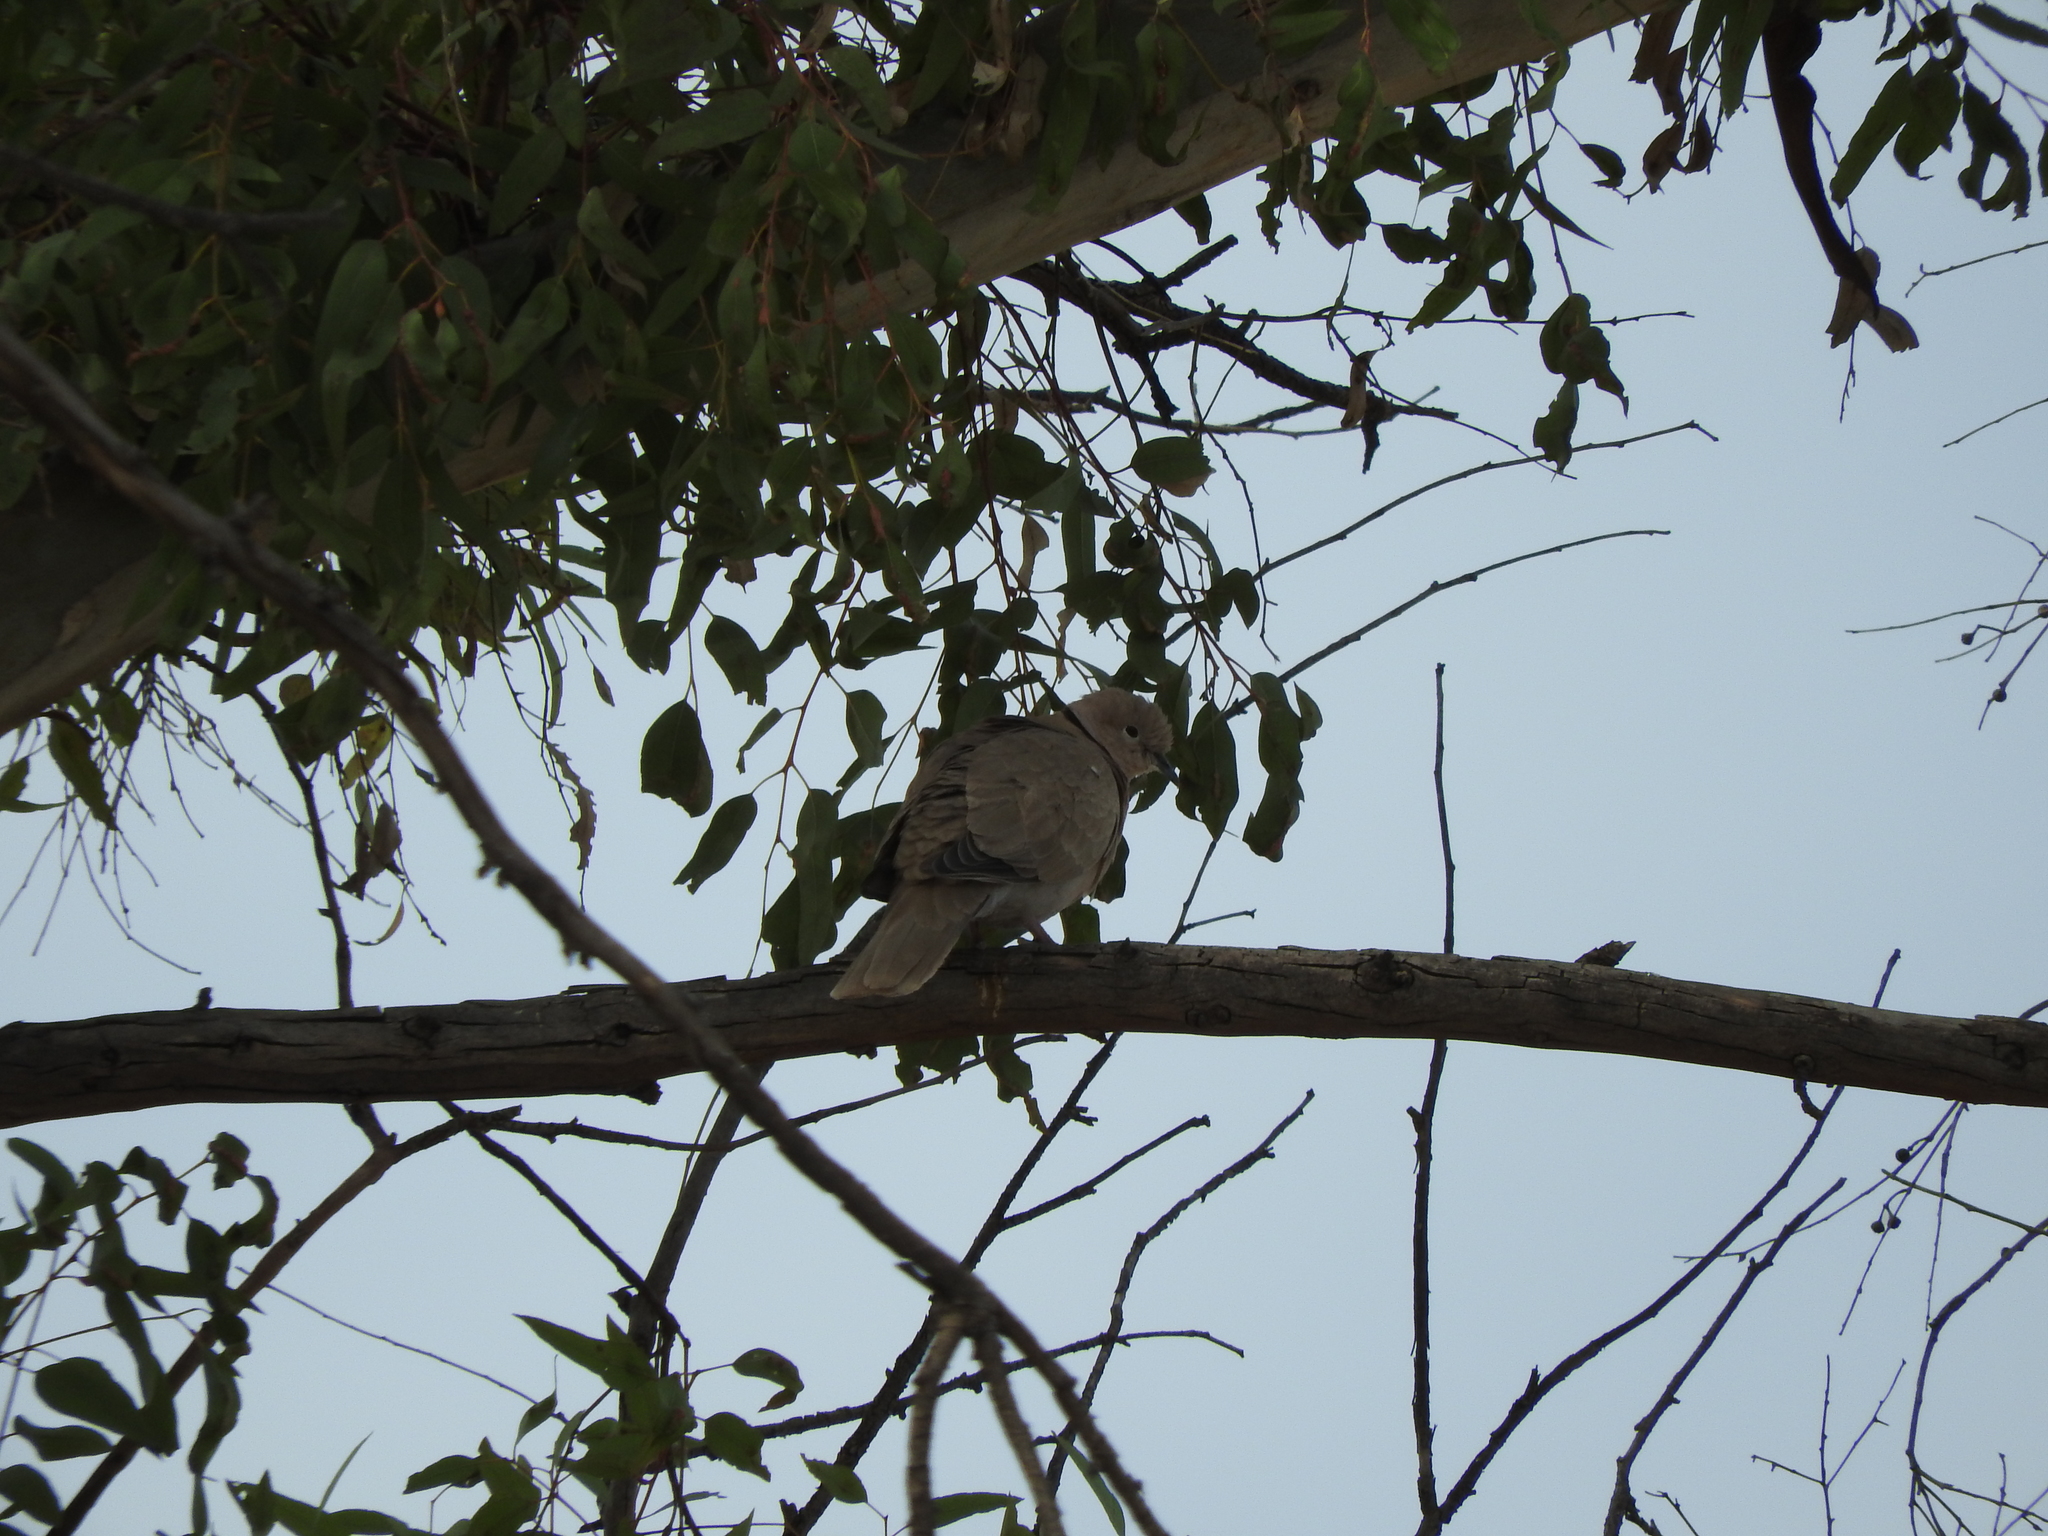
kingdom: Animalia
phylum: Chordata
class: Aves
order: Columbiformes
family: Columbidae
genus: Streptopelia
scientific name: Streptopelia decaocto
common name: Eurasian collared dove
